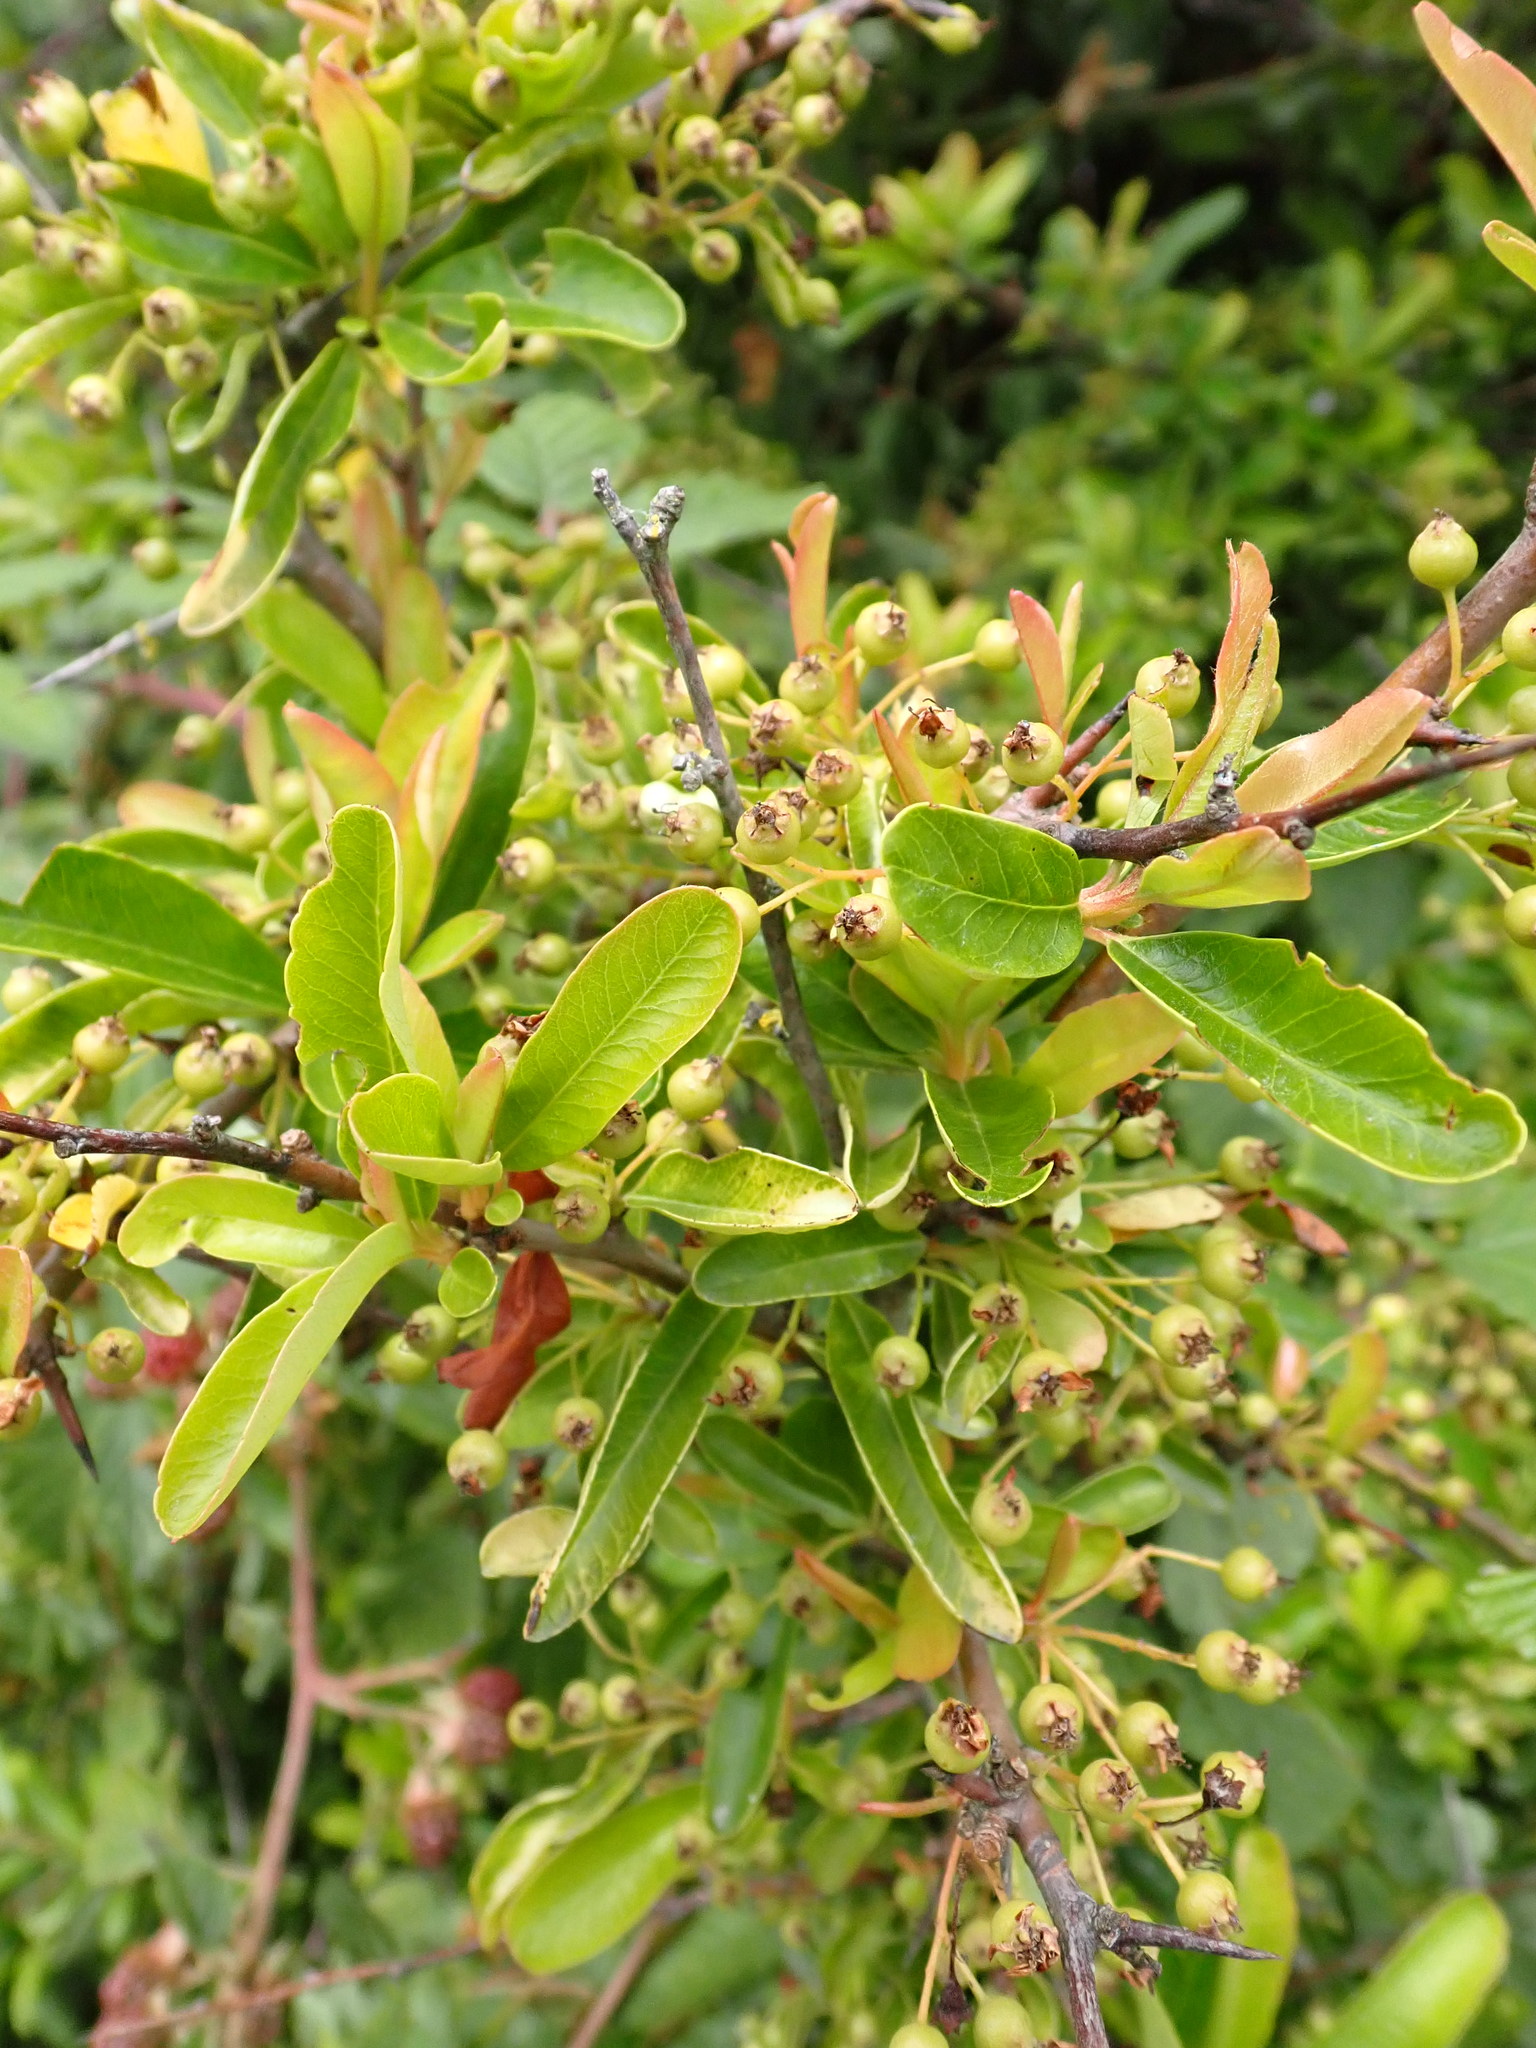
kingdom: Plantae
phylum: Tracheophyta
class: Magnoliopsida
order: Rosales
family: Rosaceae
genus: Pyracantha
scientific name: Pyracantha coccinea
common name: Firethorn
